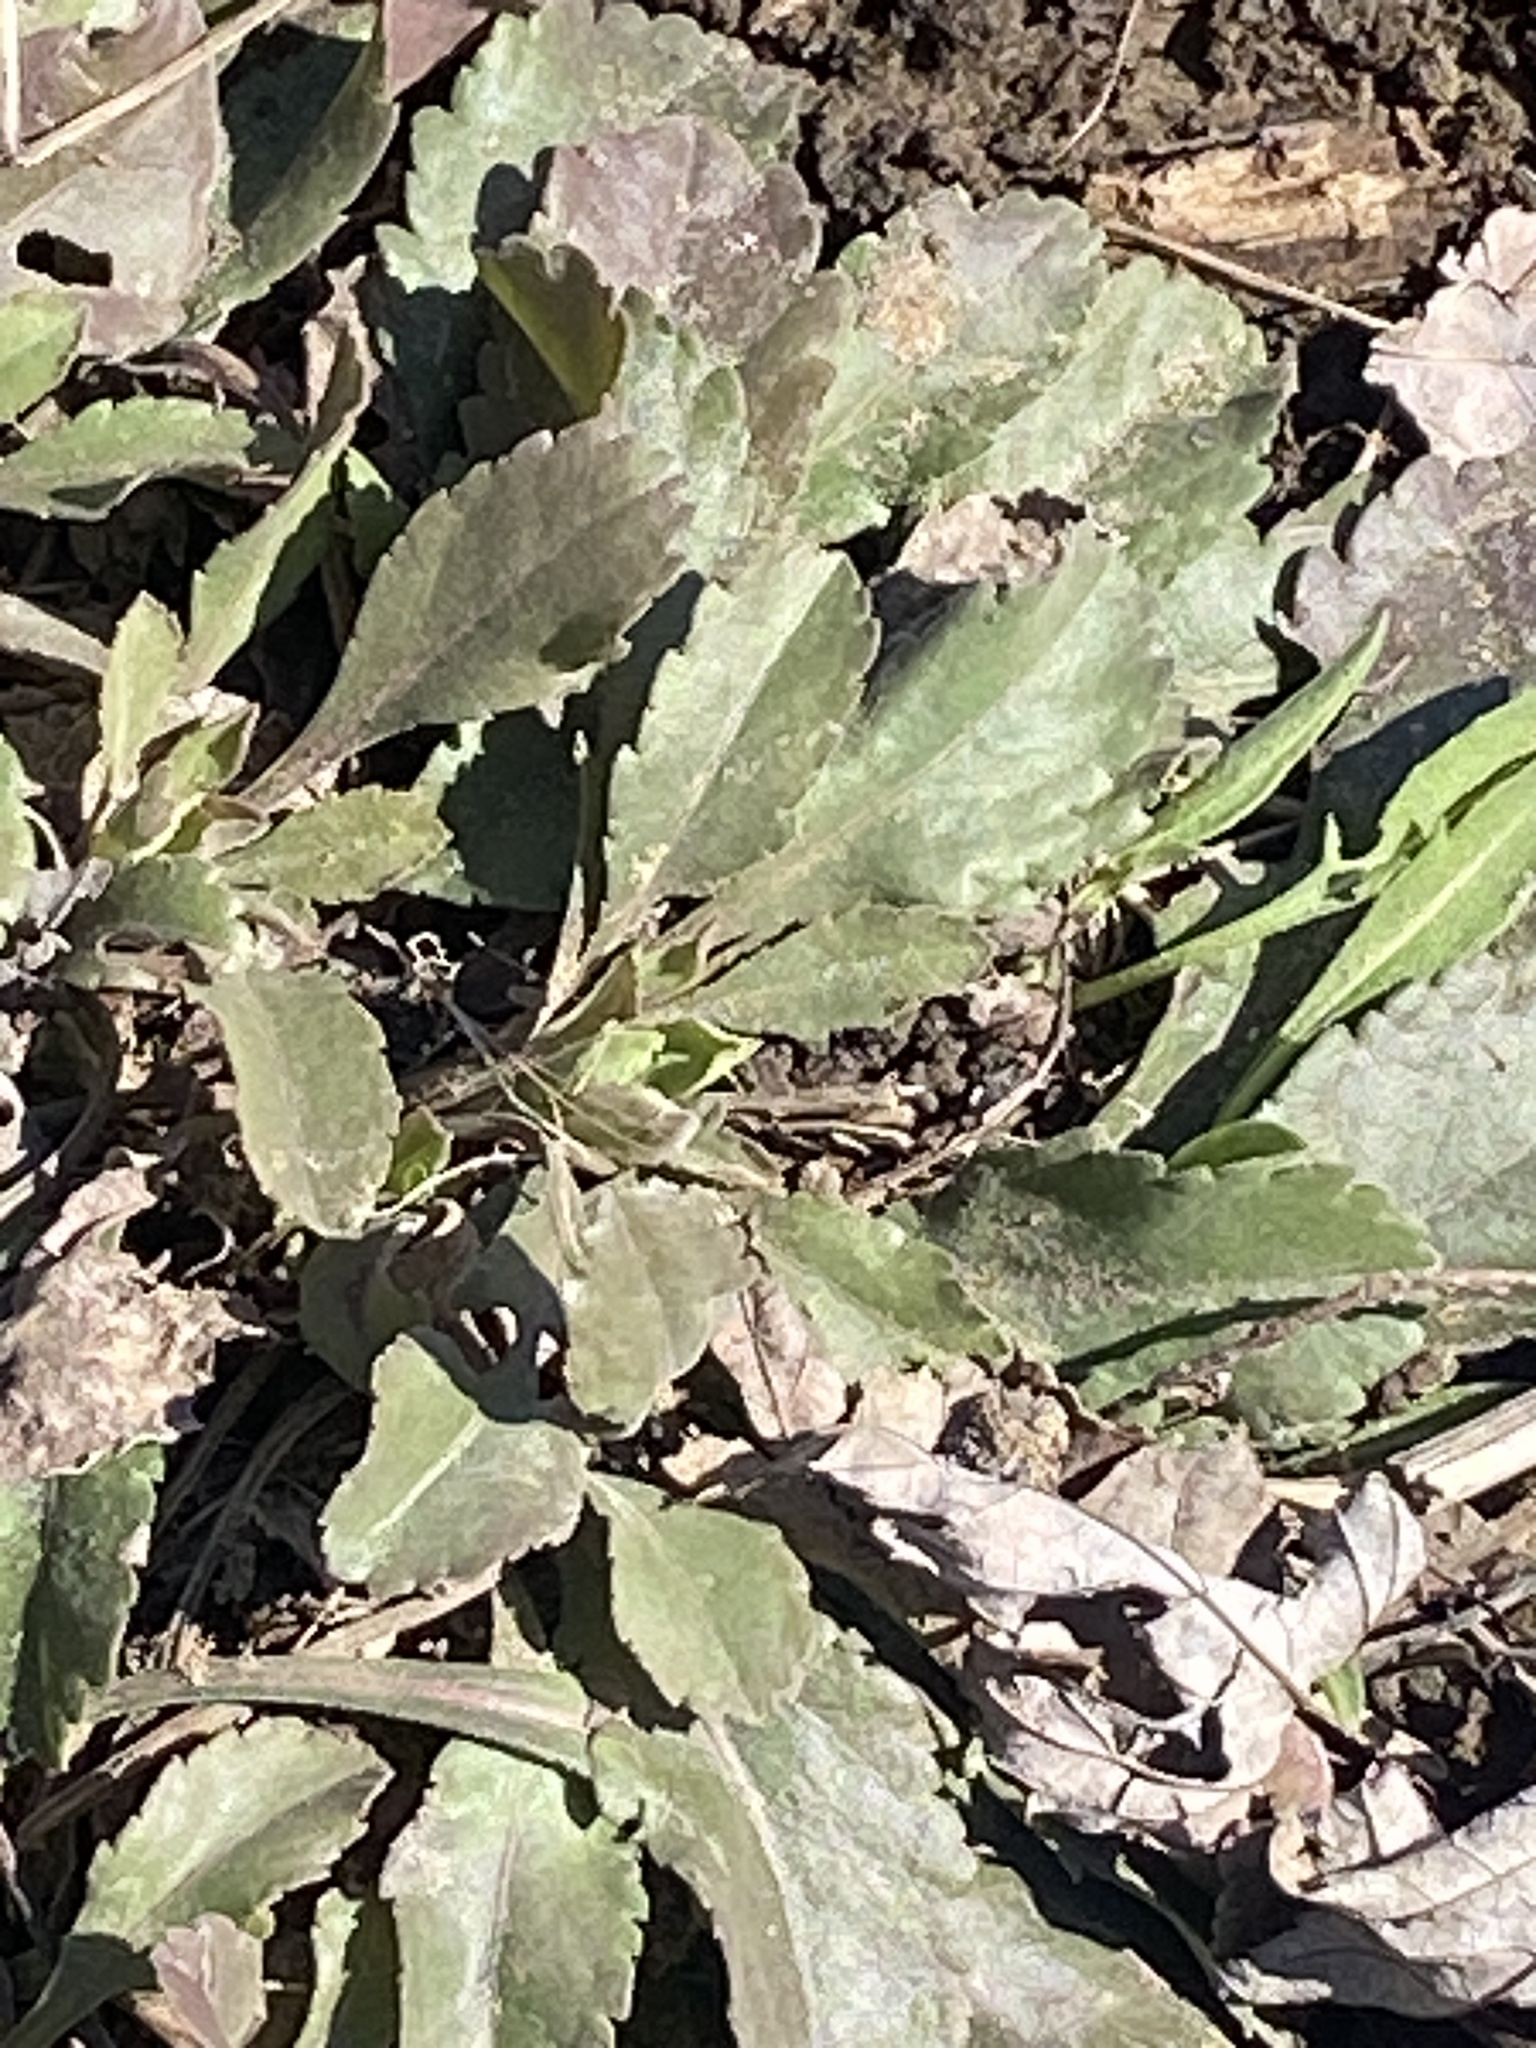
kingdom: Plantae
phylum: Tracheophyta
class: Magnoliopsida
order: Asterales
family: Asteraceae
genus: Leucanthemum
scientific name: Leucanthemum vulgare
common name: Oxeye daisy
